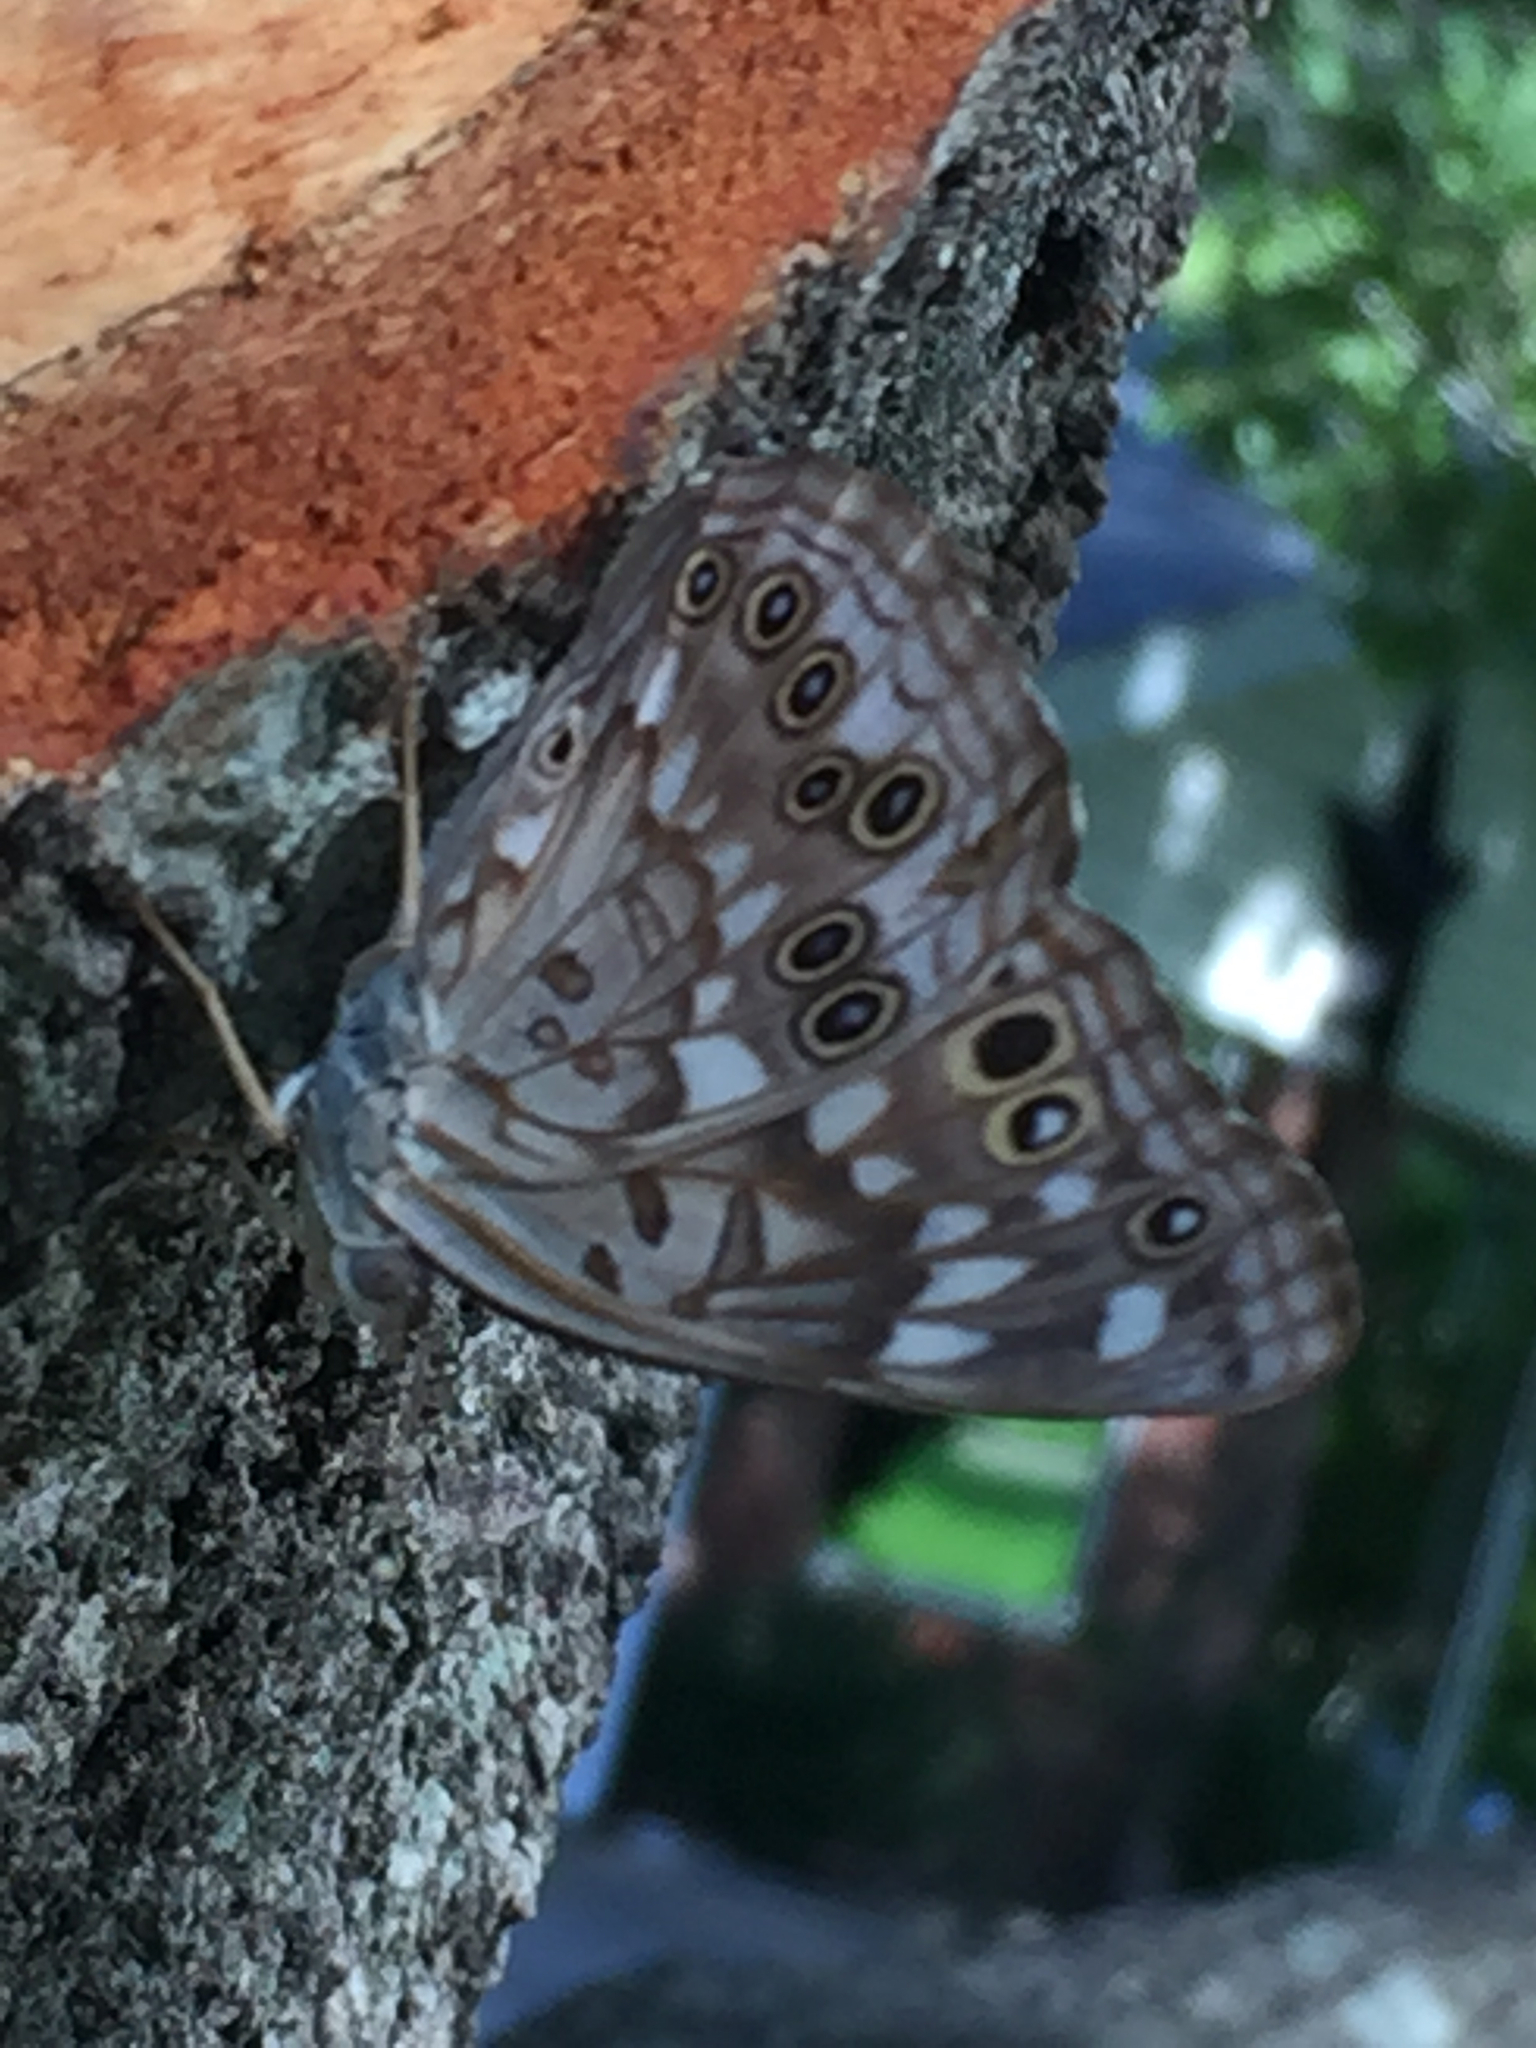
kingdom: Animalia
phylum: Arthropoda
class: Insecta
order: Lepidoptera
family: Nymphalidae
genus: Asterocampa
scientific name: Asterocampa celtis
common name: Hackberry emperor
